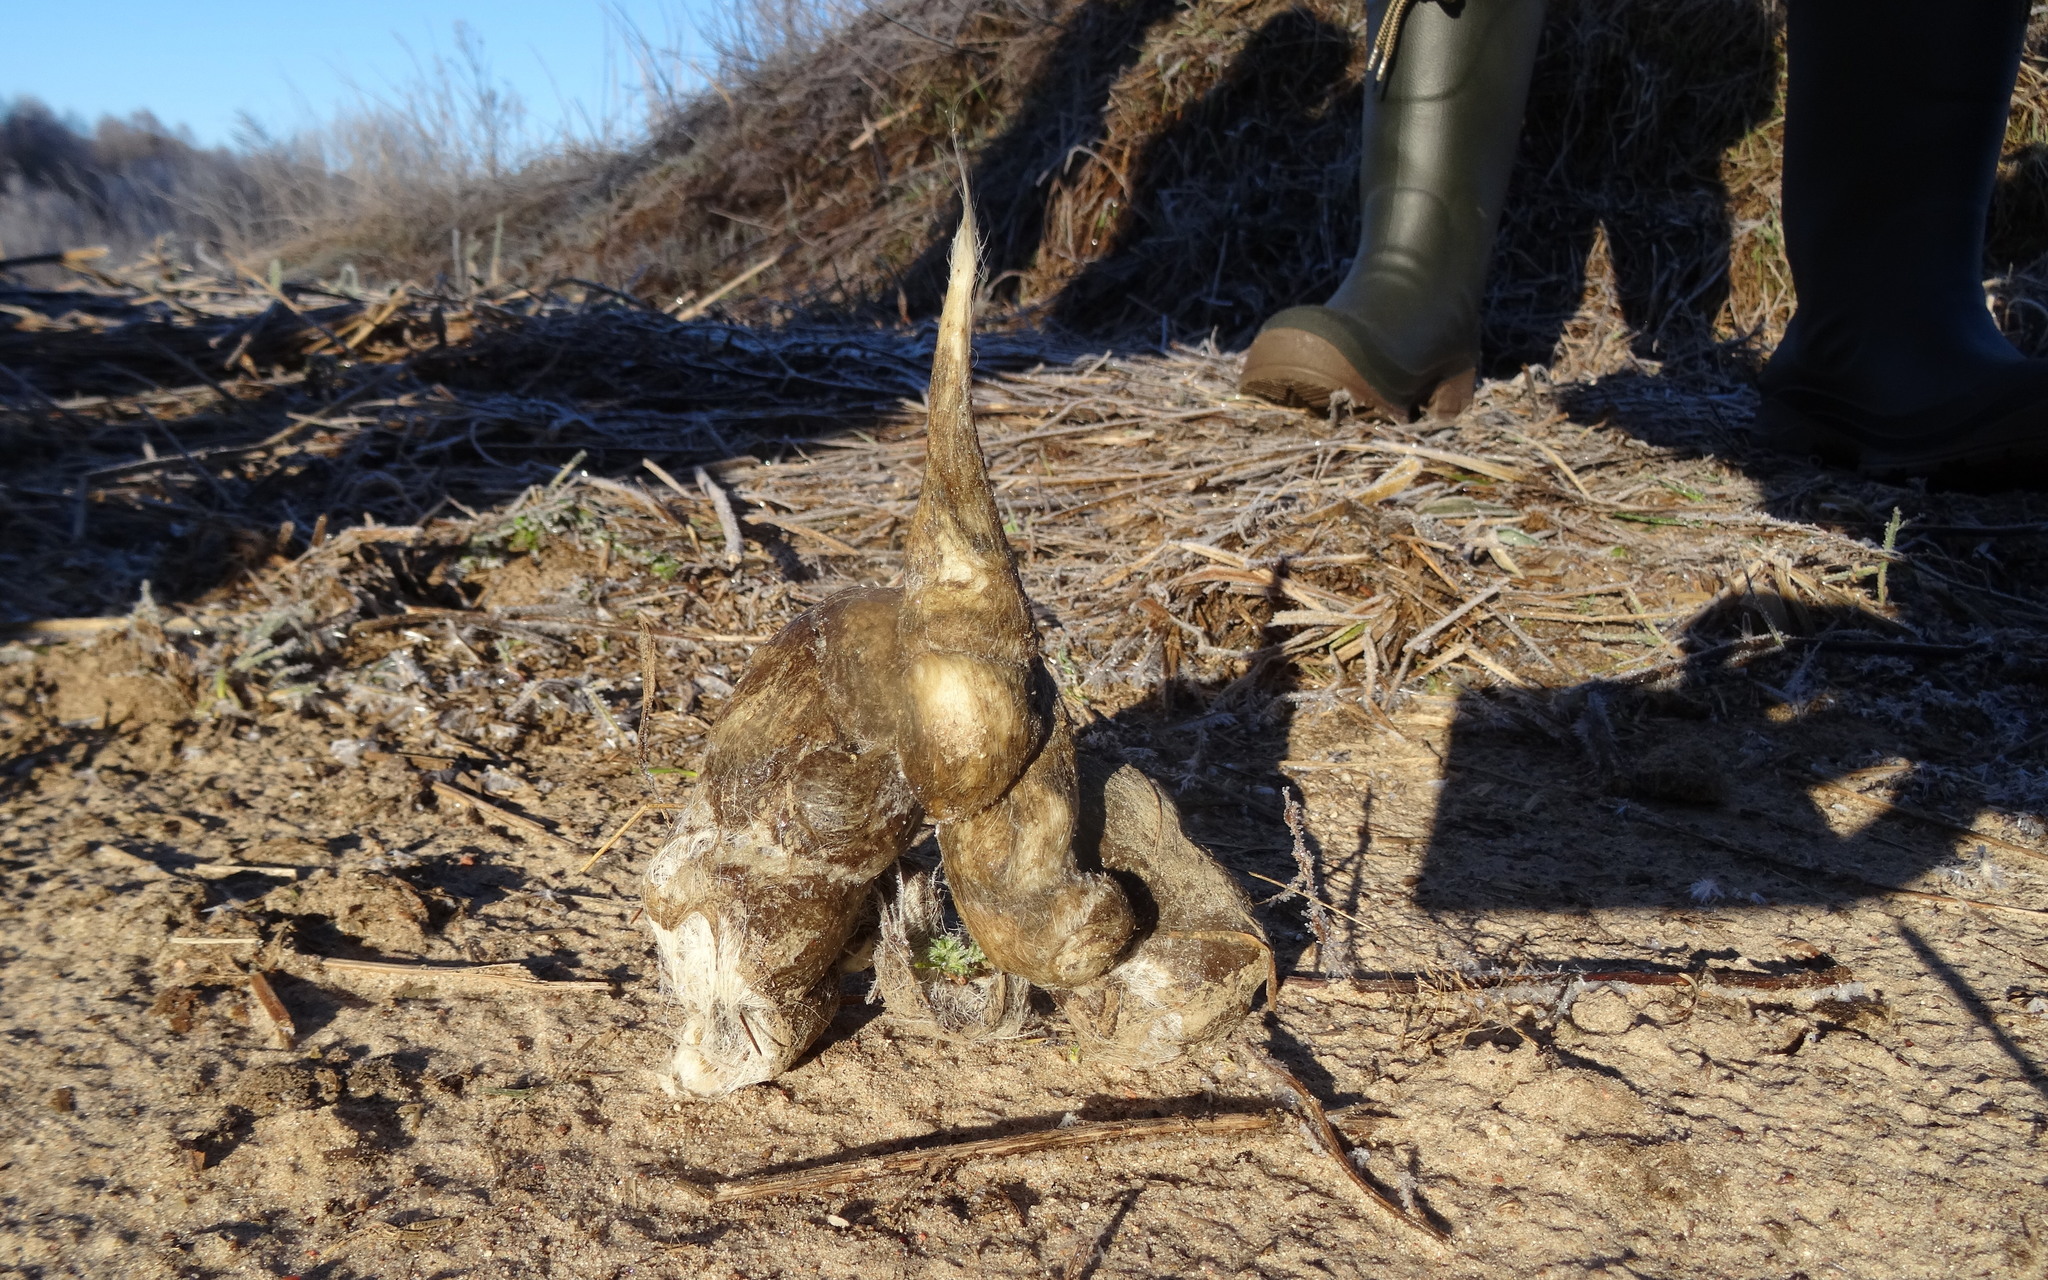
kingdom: Animalia
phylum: Chordata
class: Mammalia
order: Carnivora
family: Canidae
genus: Canis
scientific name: Canis lupus
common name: Gray wolf
